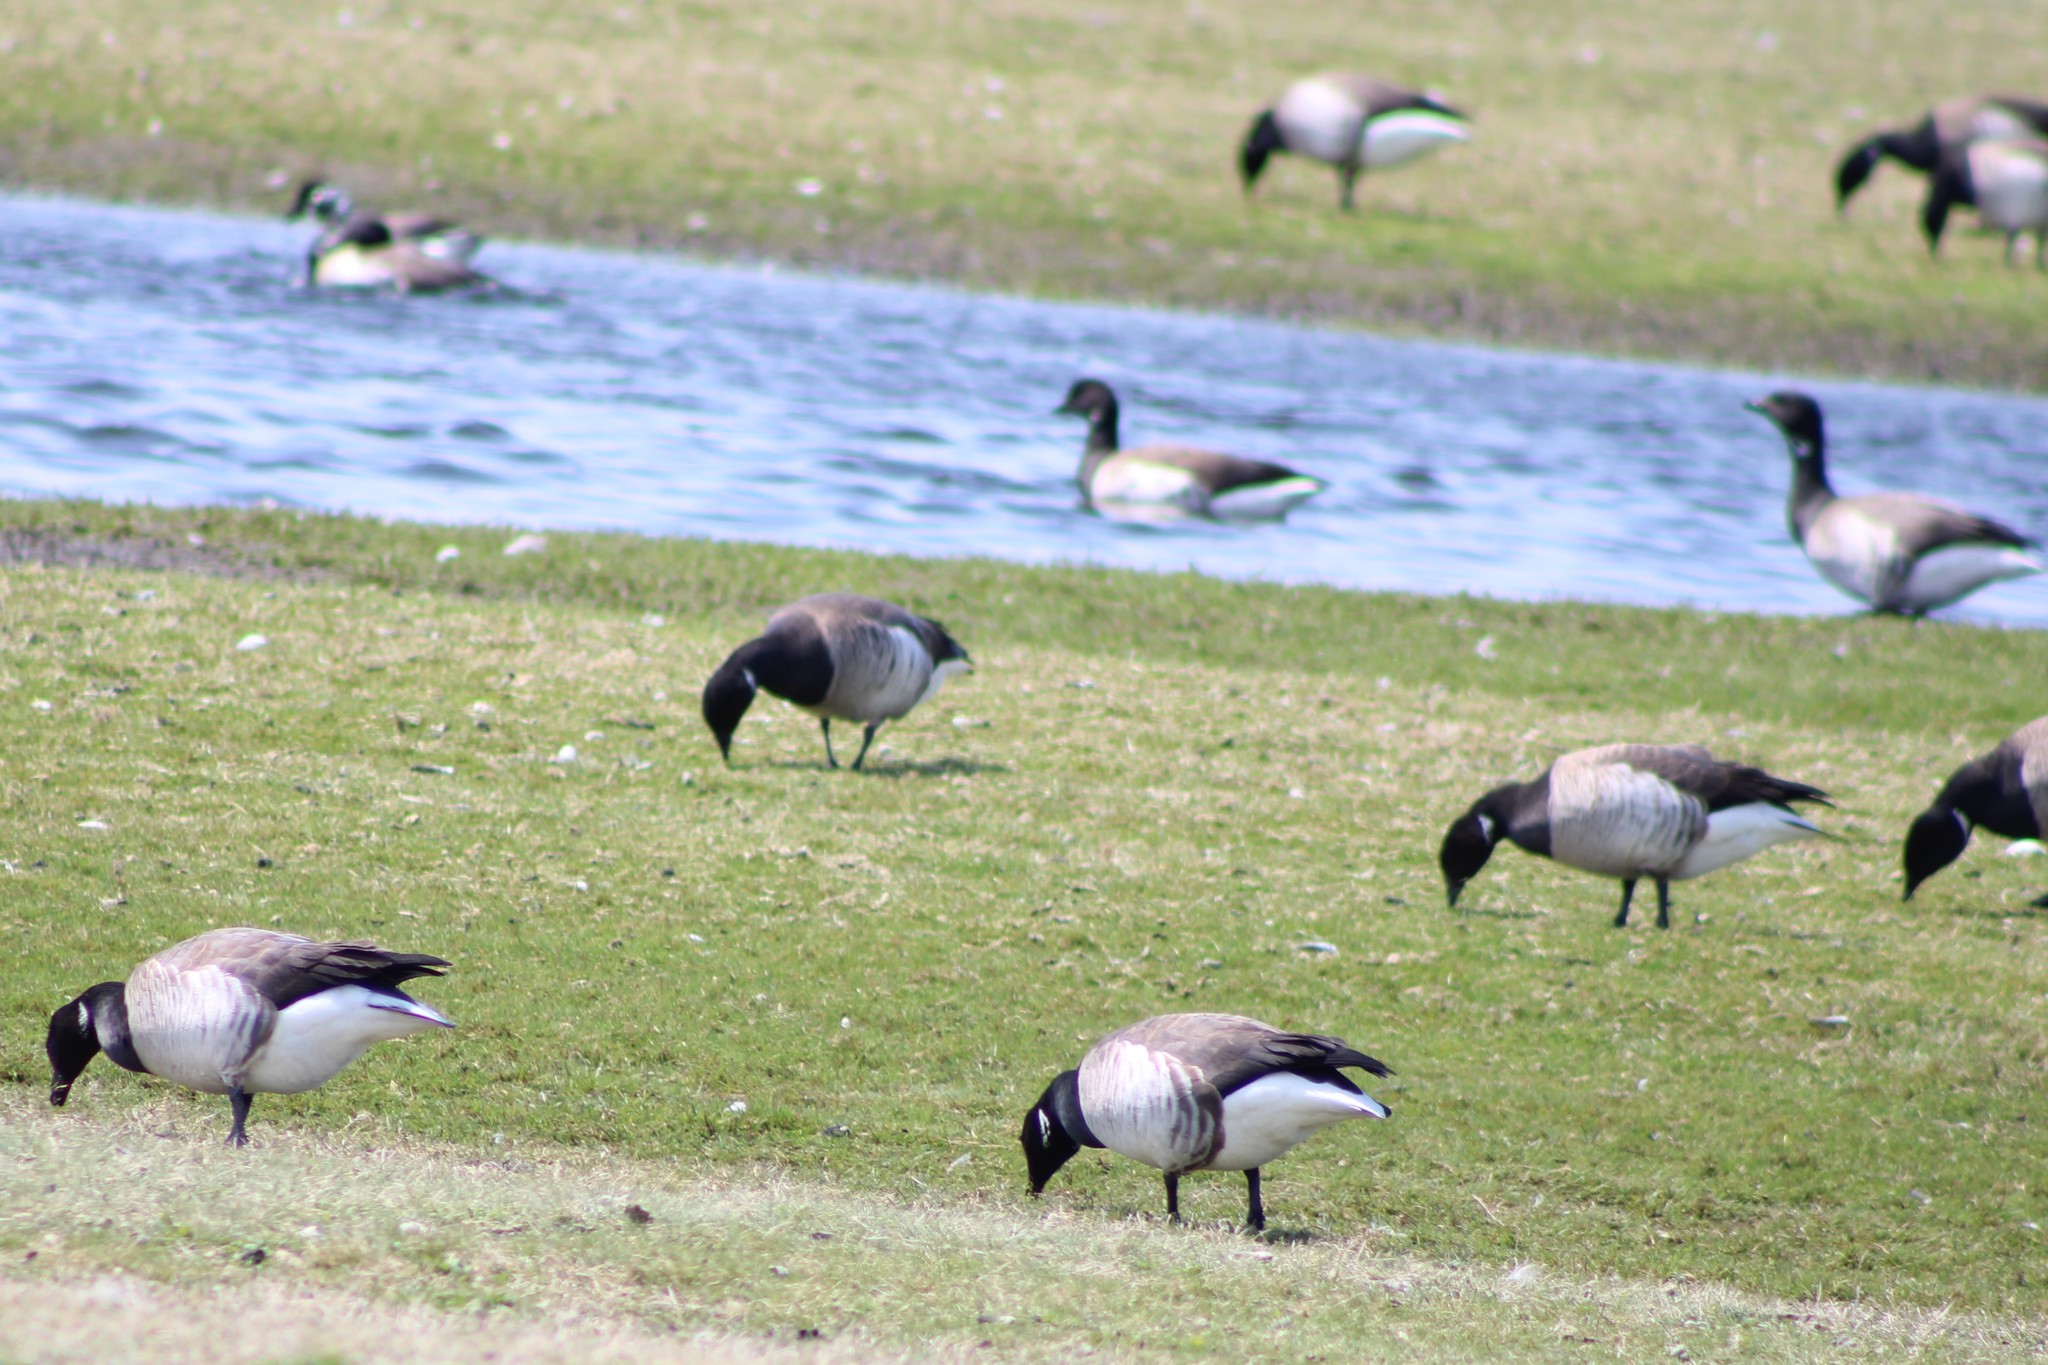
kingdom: Animalia
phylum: Chordata
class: Aves
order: Anseriformes
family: Anatidae
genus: Branta
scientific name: Branta bernicla
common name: Brant goose
